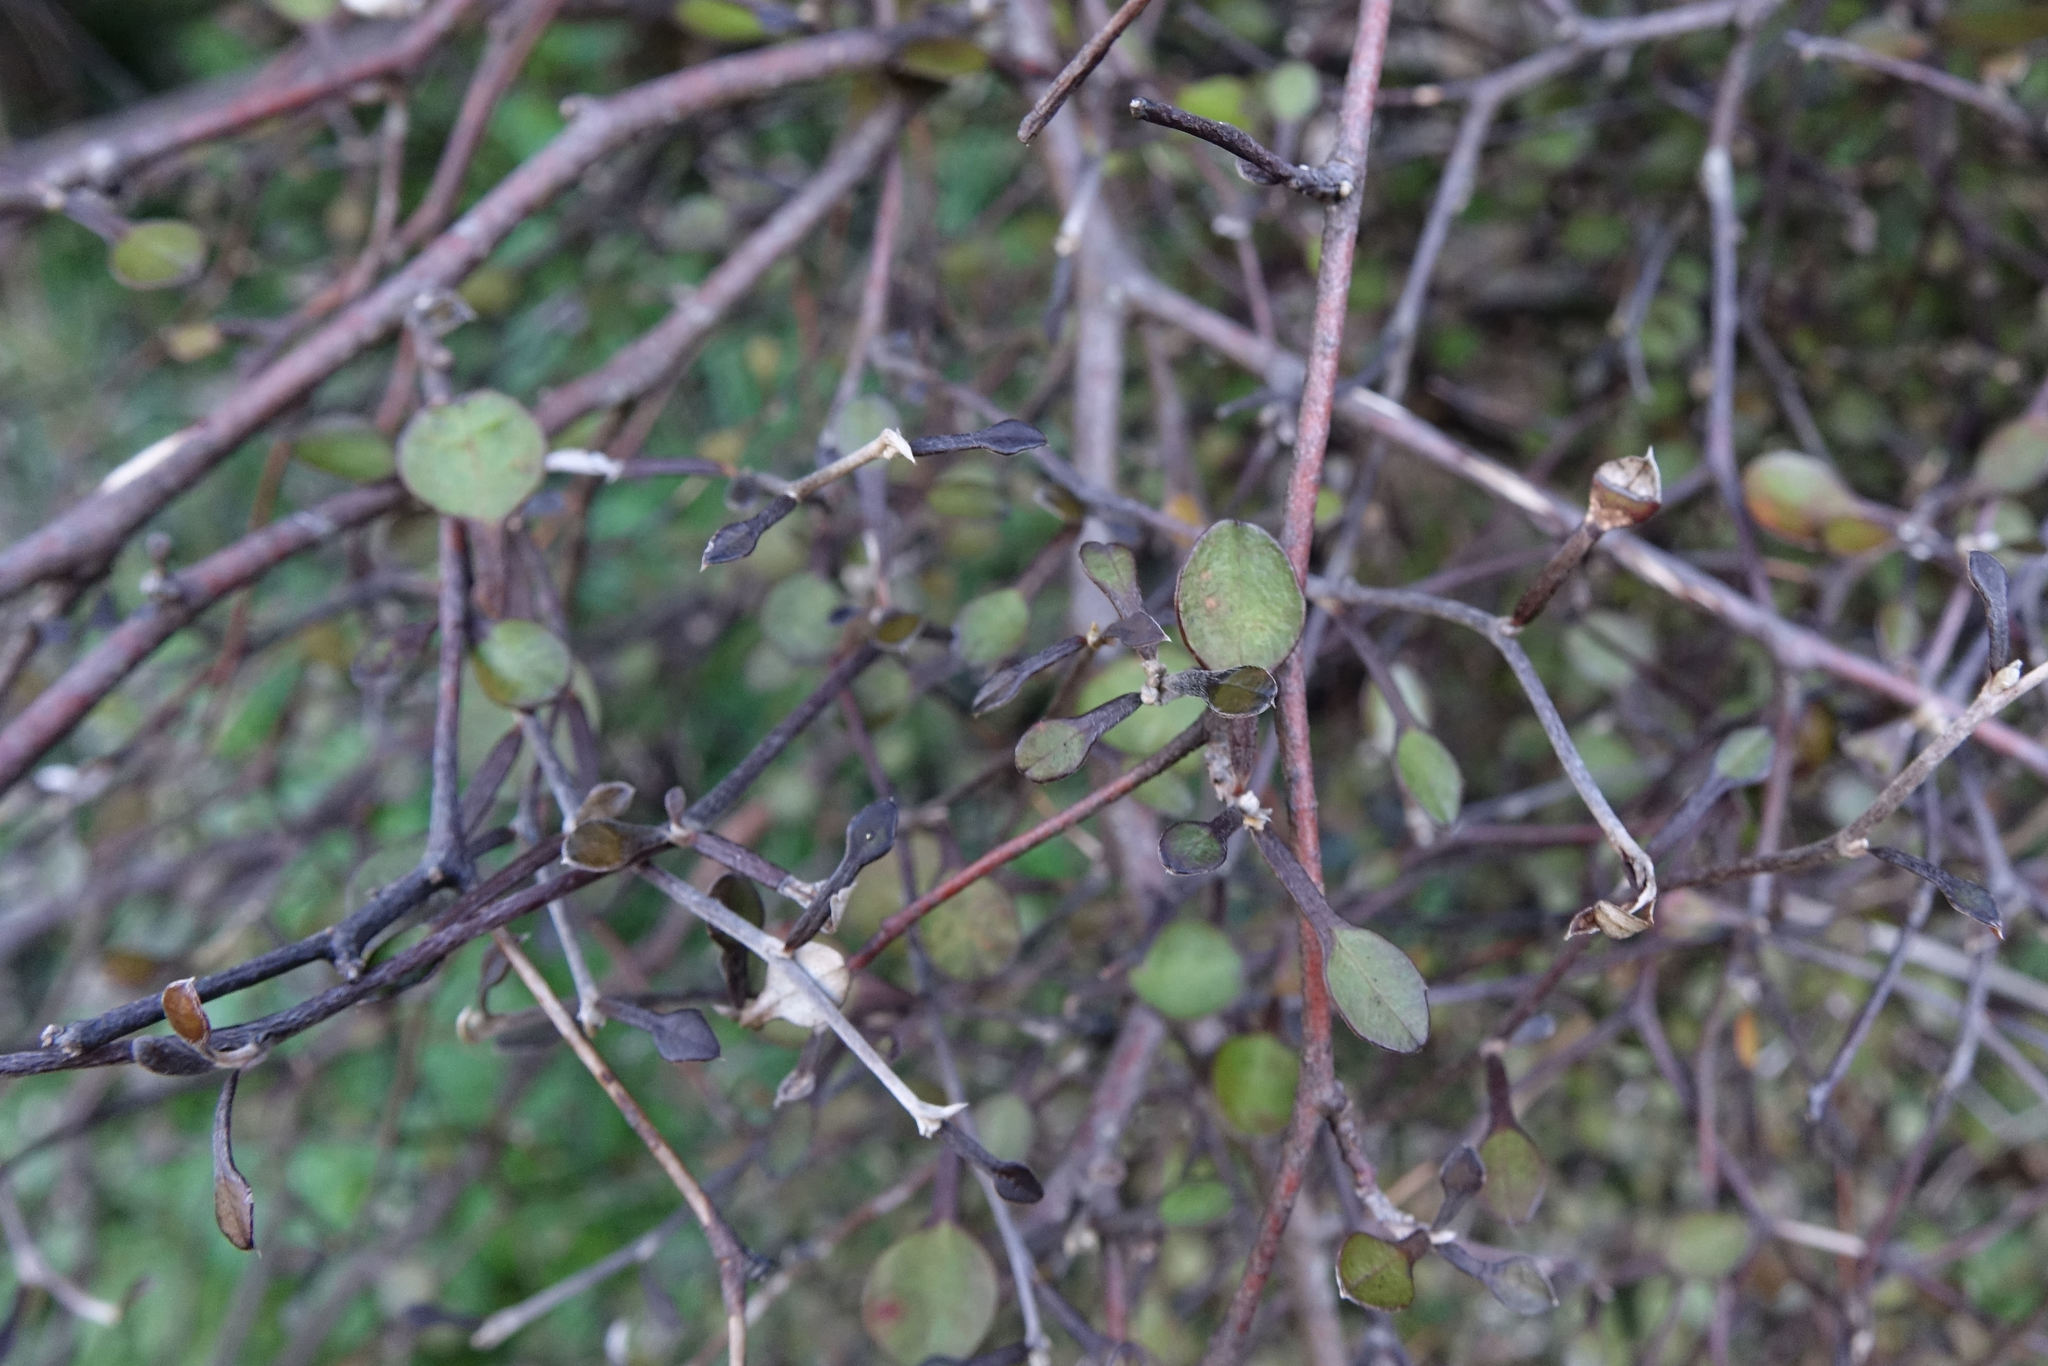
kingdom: Plantae
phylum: Tracheophyta
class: Magnoliopsida
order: Asterales
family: Argophyllaceae
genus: Corokia
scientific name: Corokia cotoneaster
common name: Wire nettingbush
